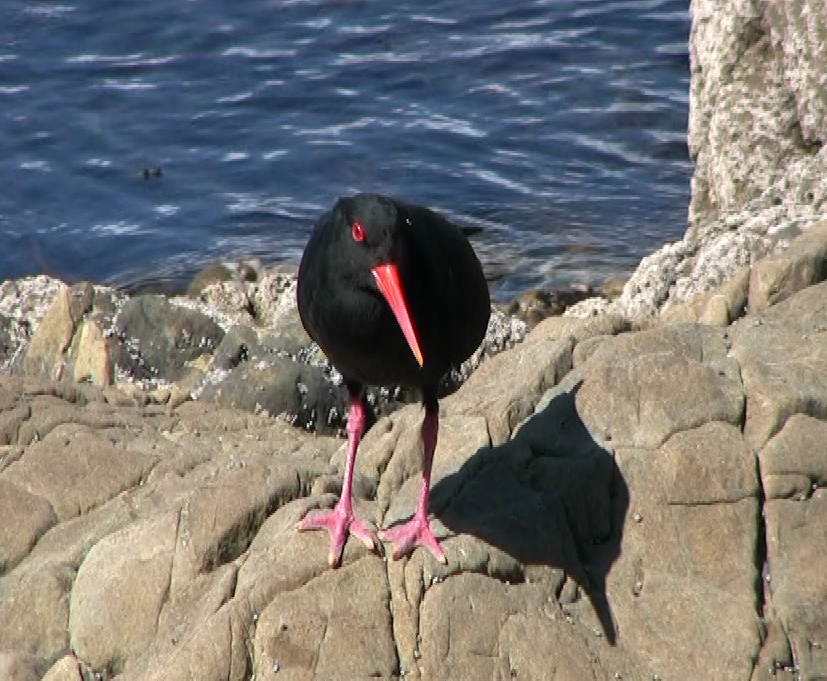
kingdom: Animalia
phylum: Chordata
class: Aves
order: Charadriiformes
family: Haematopodidae
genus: Haematopus
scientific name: Haematopus unicolor
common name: Variable oystercatcher
